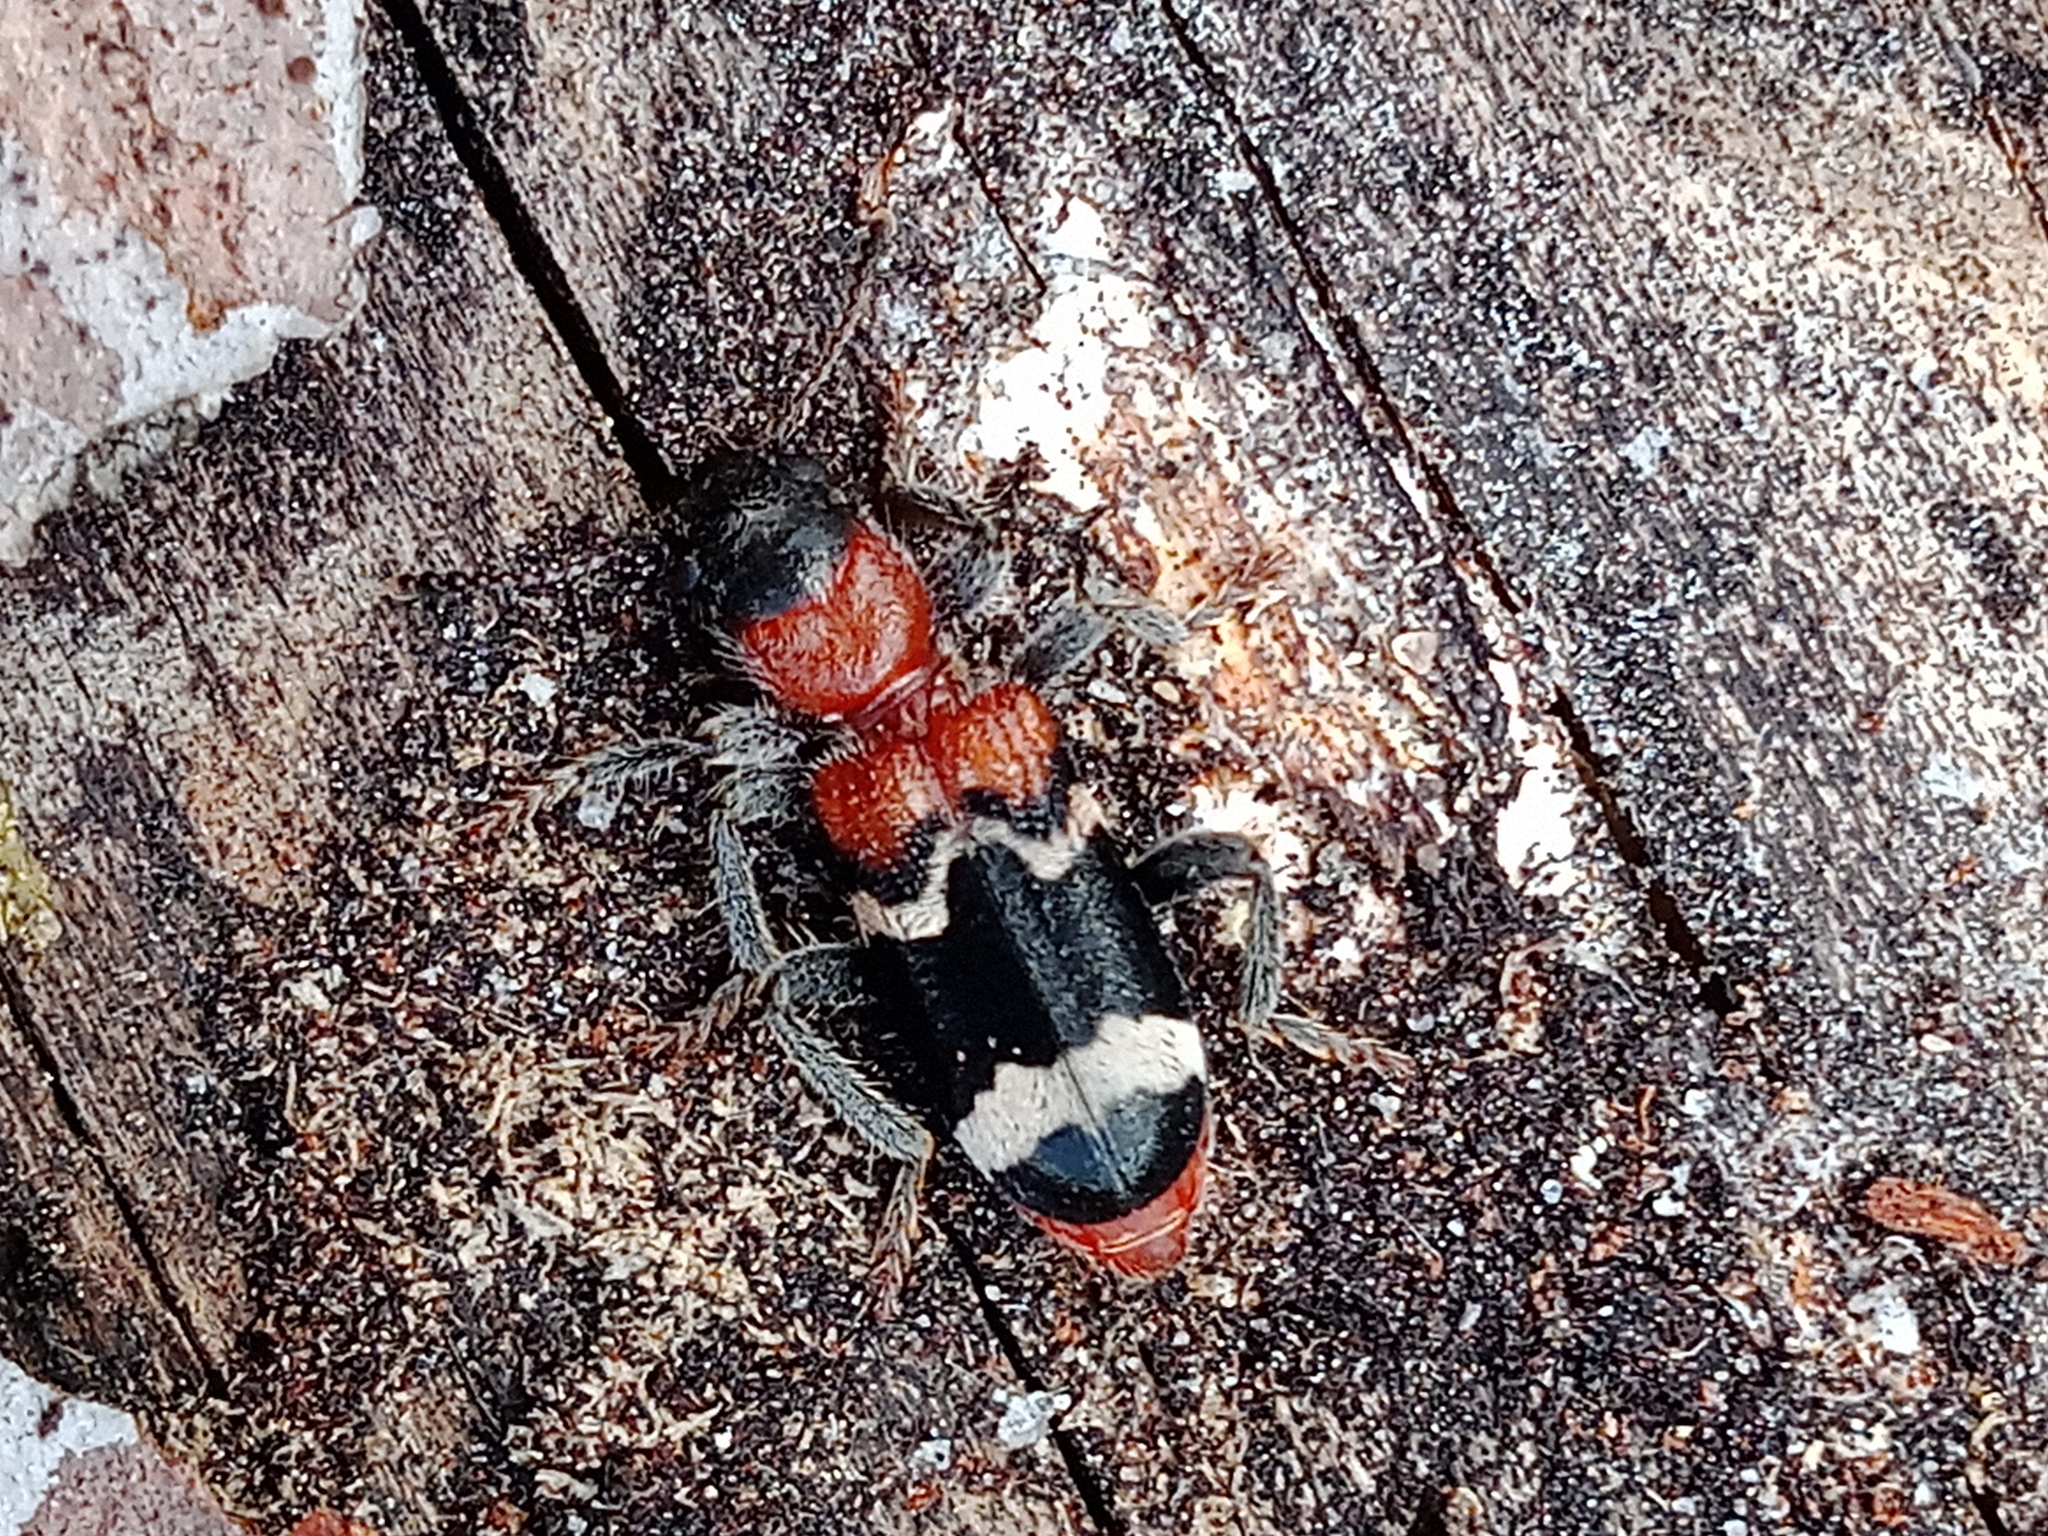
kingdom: Animalia
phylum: Arthropoda
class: Insecta
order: Coleoptera
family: Cleridae
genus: Thanasimus
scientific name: Thanasimus formicarius
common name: Ant beetle
